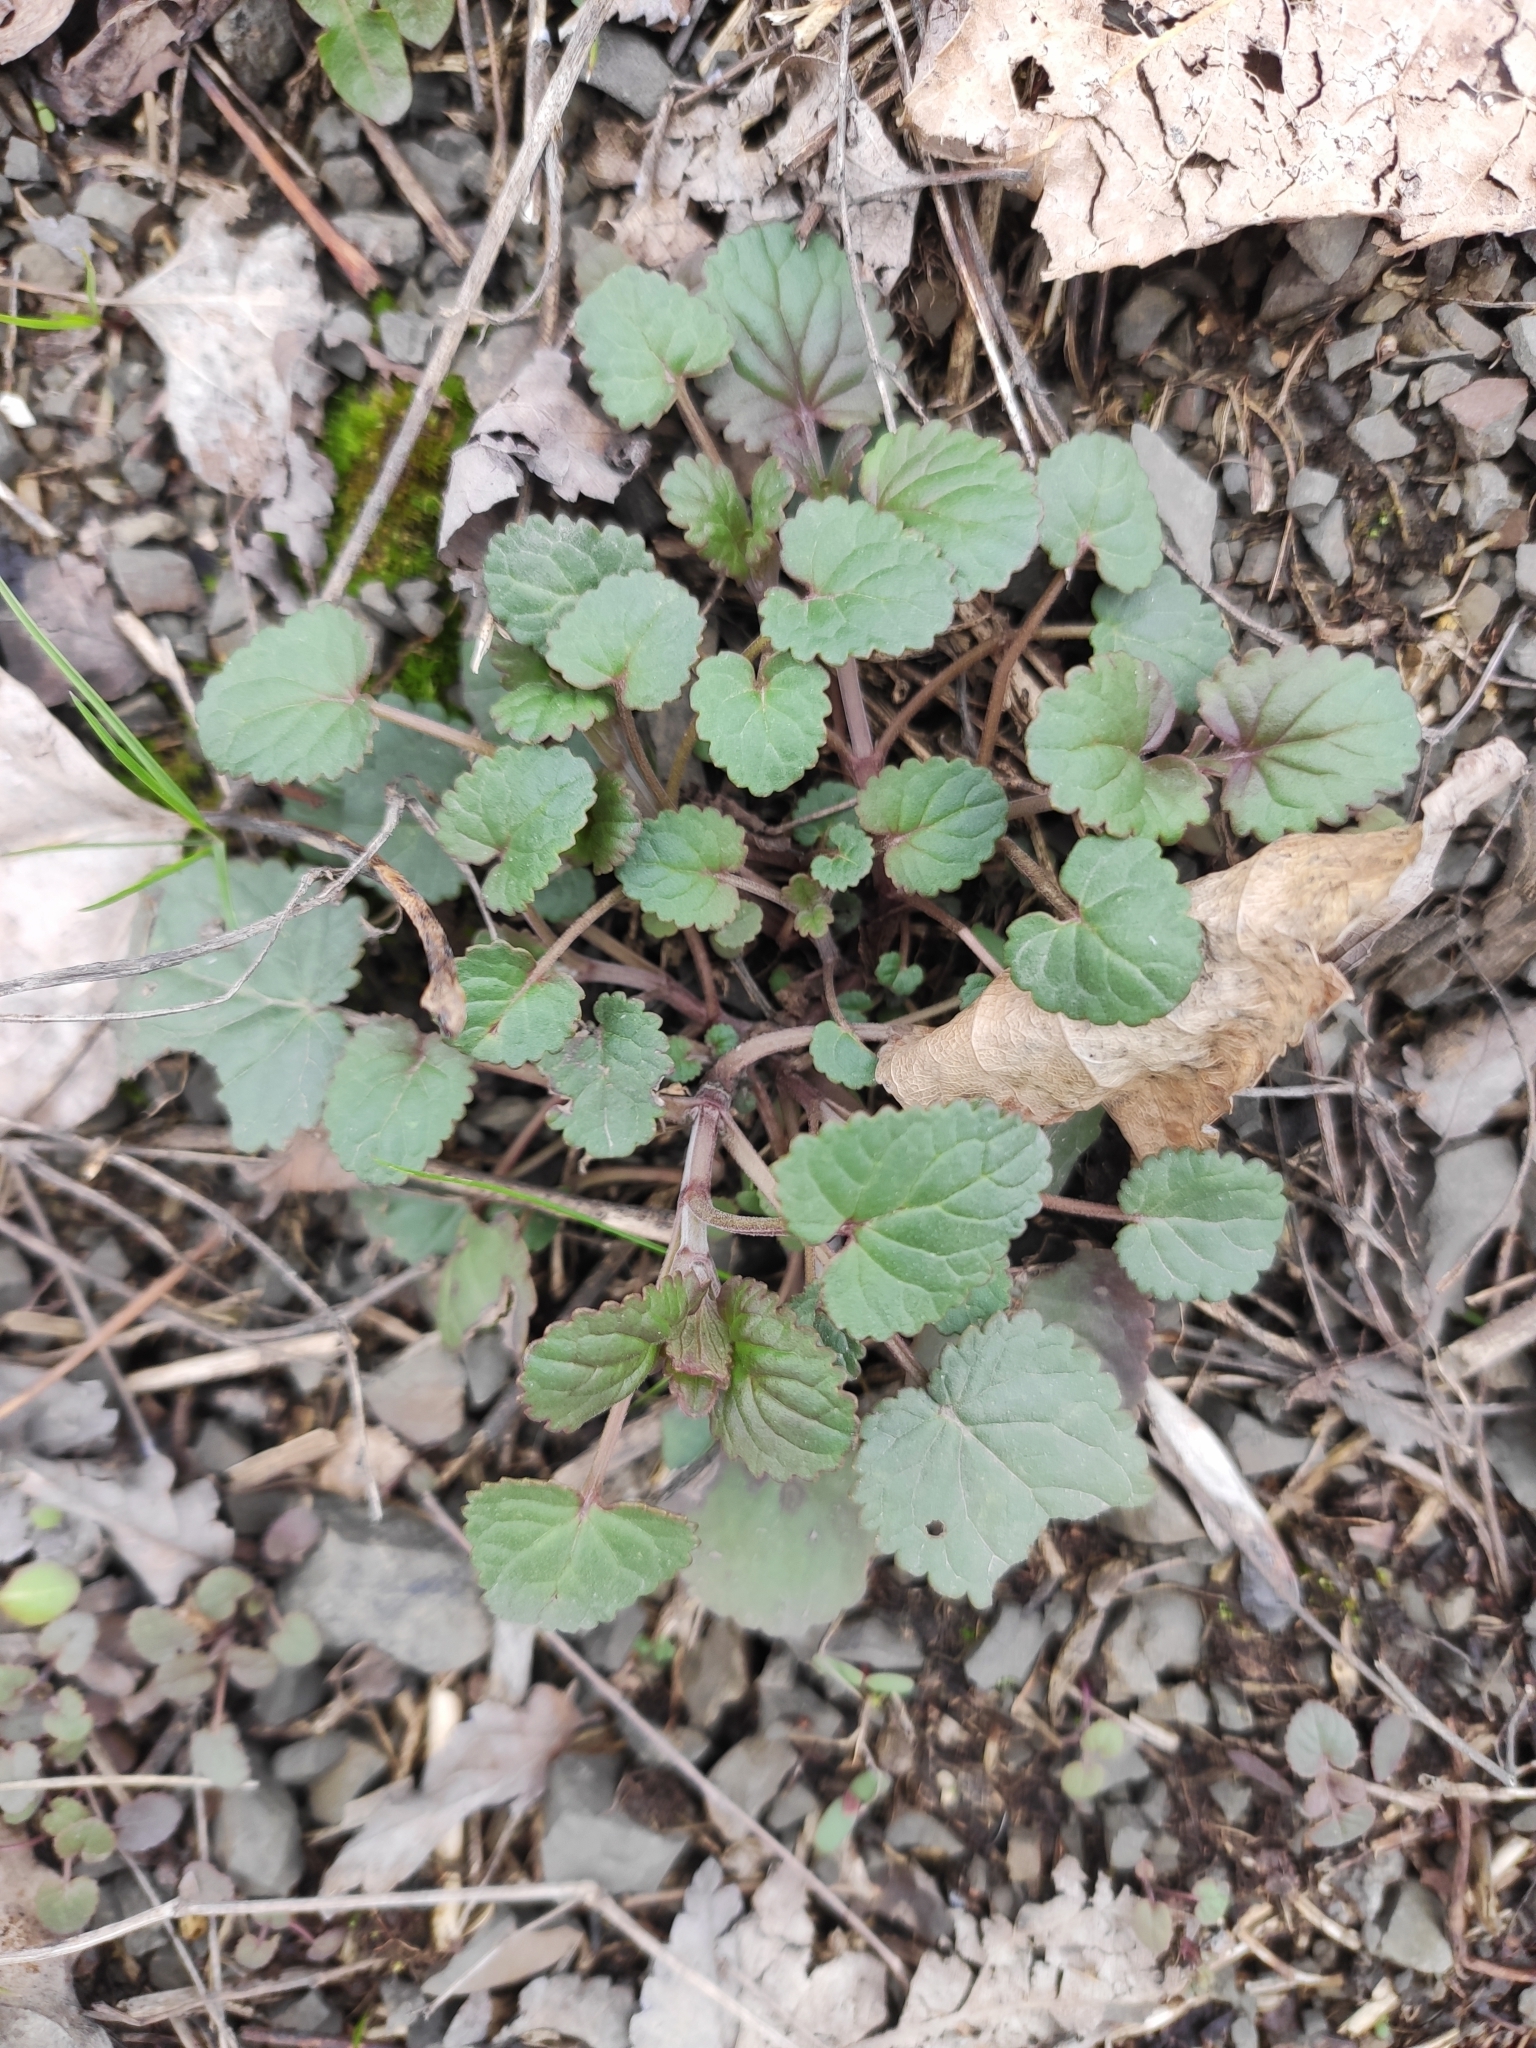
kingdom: Plantae
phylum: Tracheophyta
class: Magnoliopsida
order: Lamiales
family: Lamiaceae
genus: Dracocephalum
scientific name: Dracocephalum nutans
